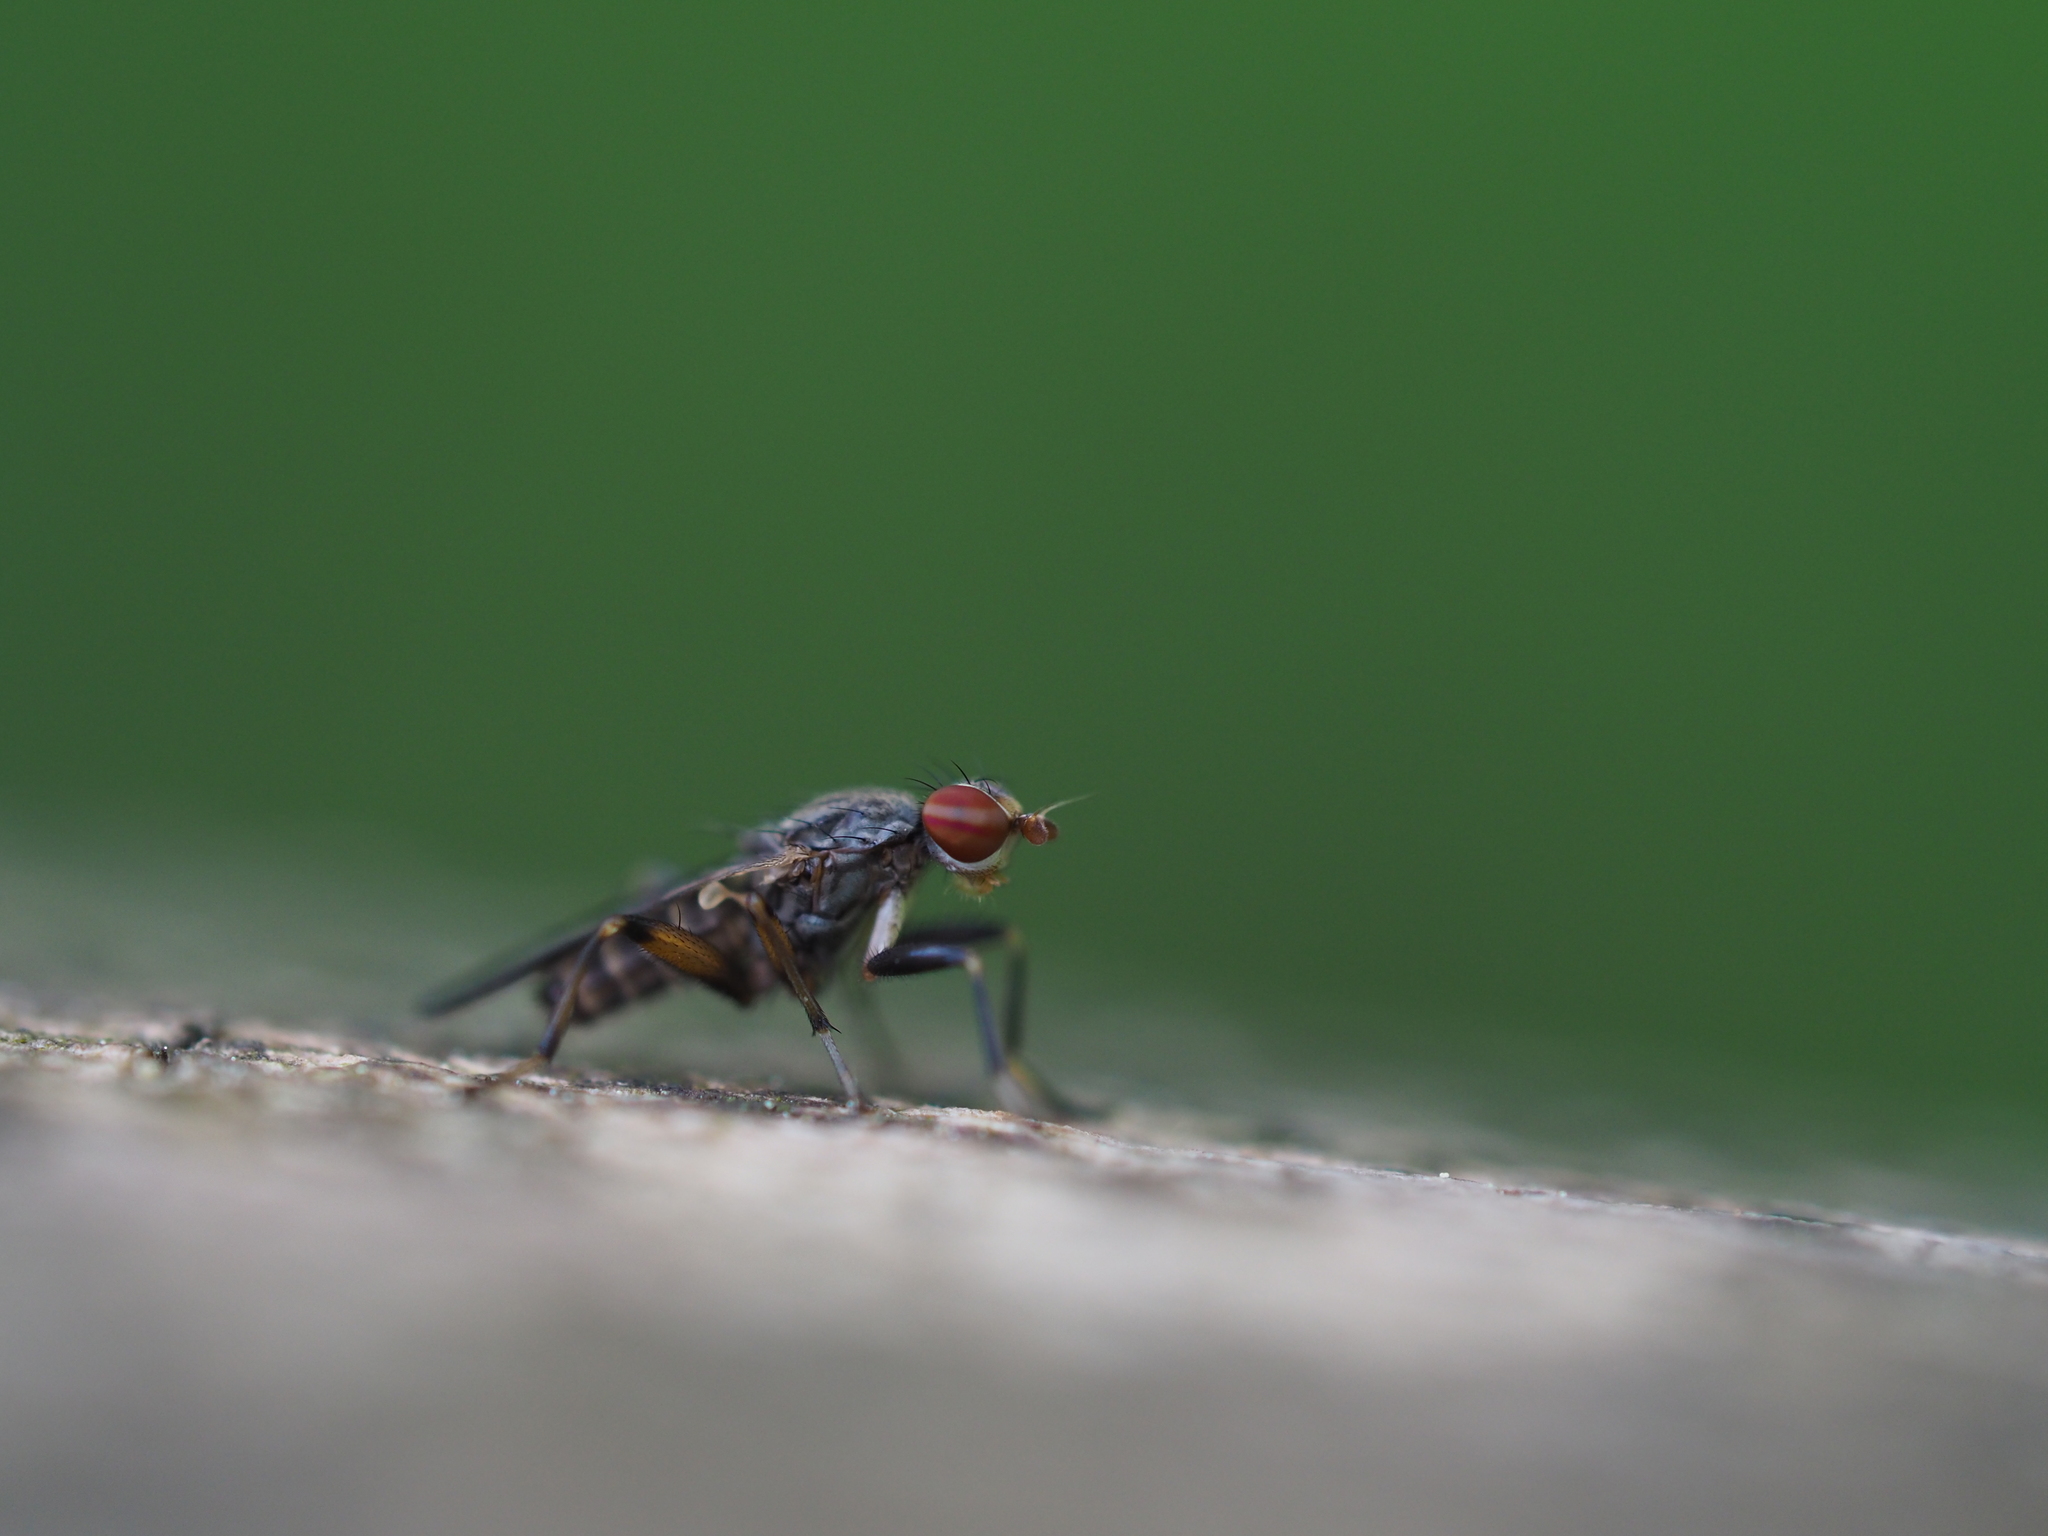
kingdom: Animalia
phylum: Arthropoda
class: Insecta
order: Diptera
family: Sciomyzidae
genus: Pherbellia
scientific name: Pherbellia annulipes
